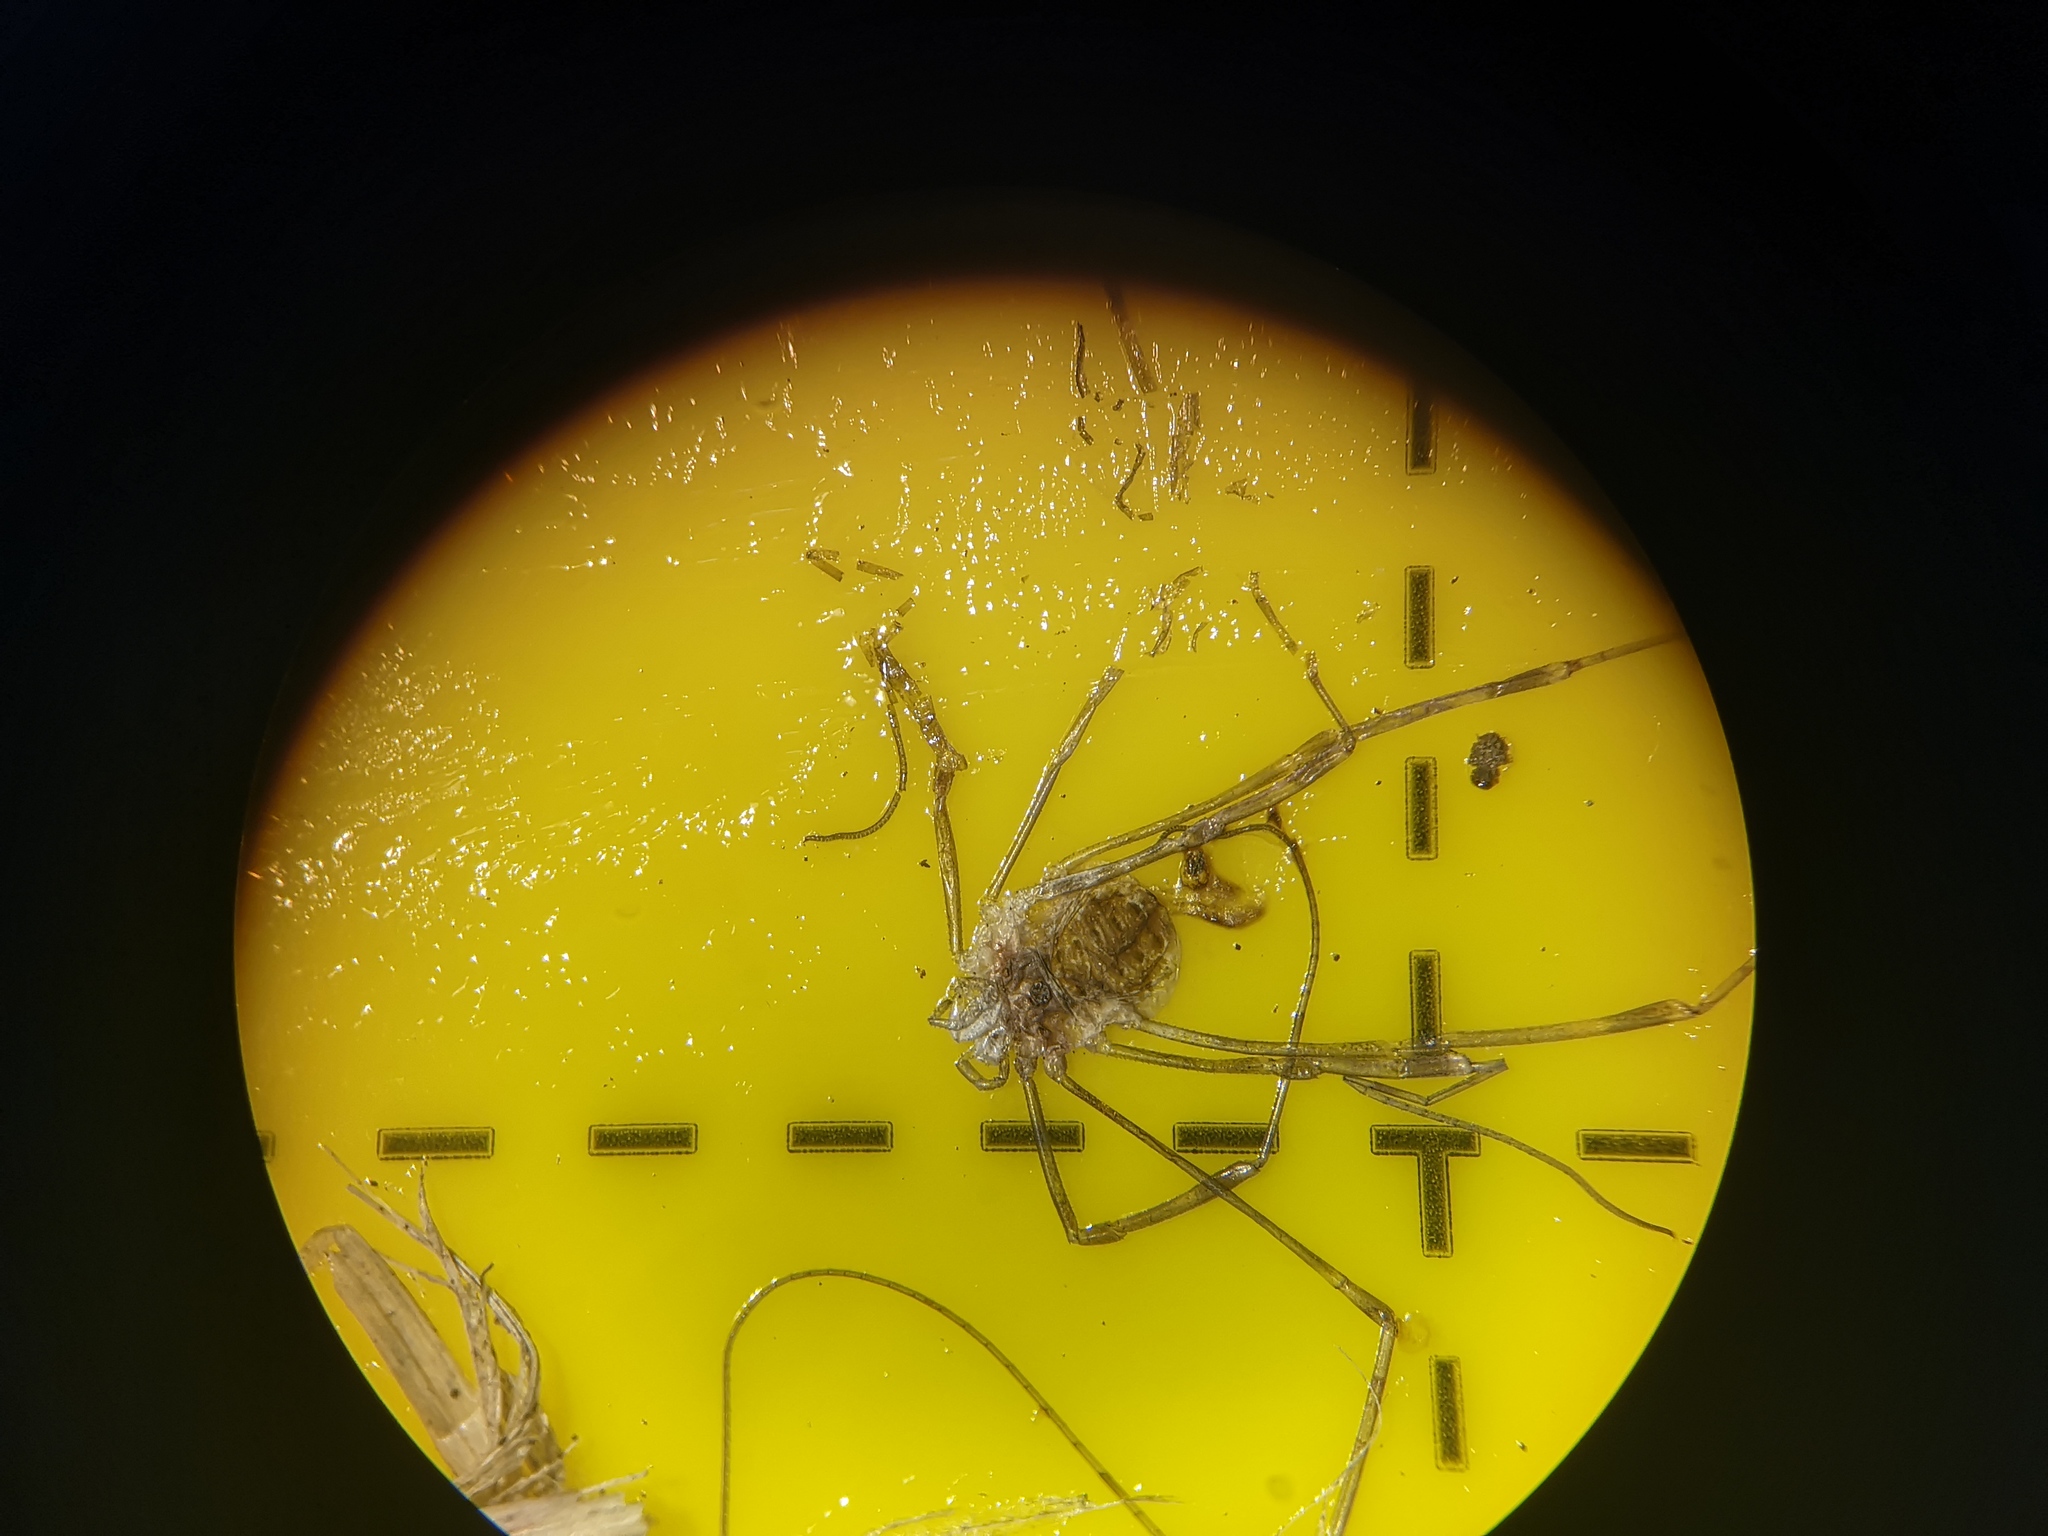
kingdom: Animalia
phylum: Arthropoda
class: Arachnida
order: Opiliones
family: Phalangiidae
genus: Opilio
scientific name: Opilio canestrinii
